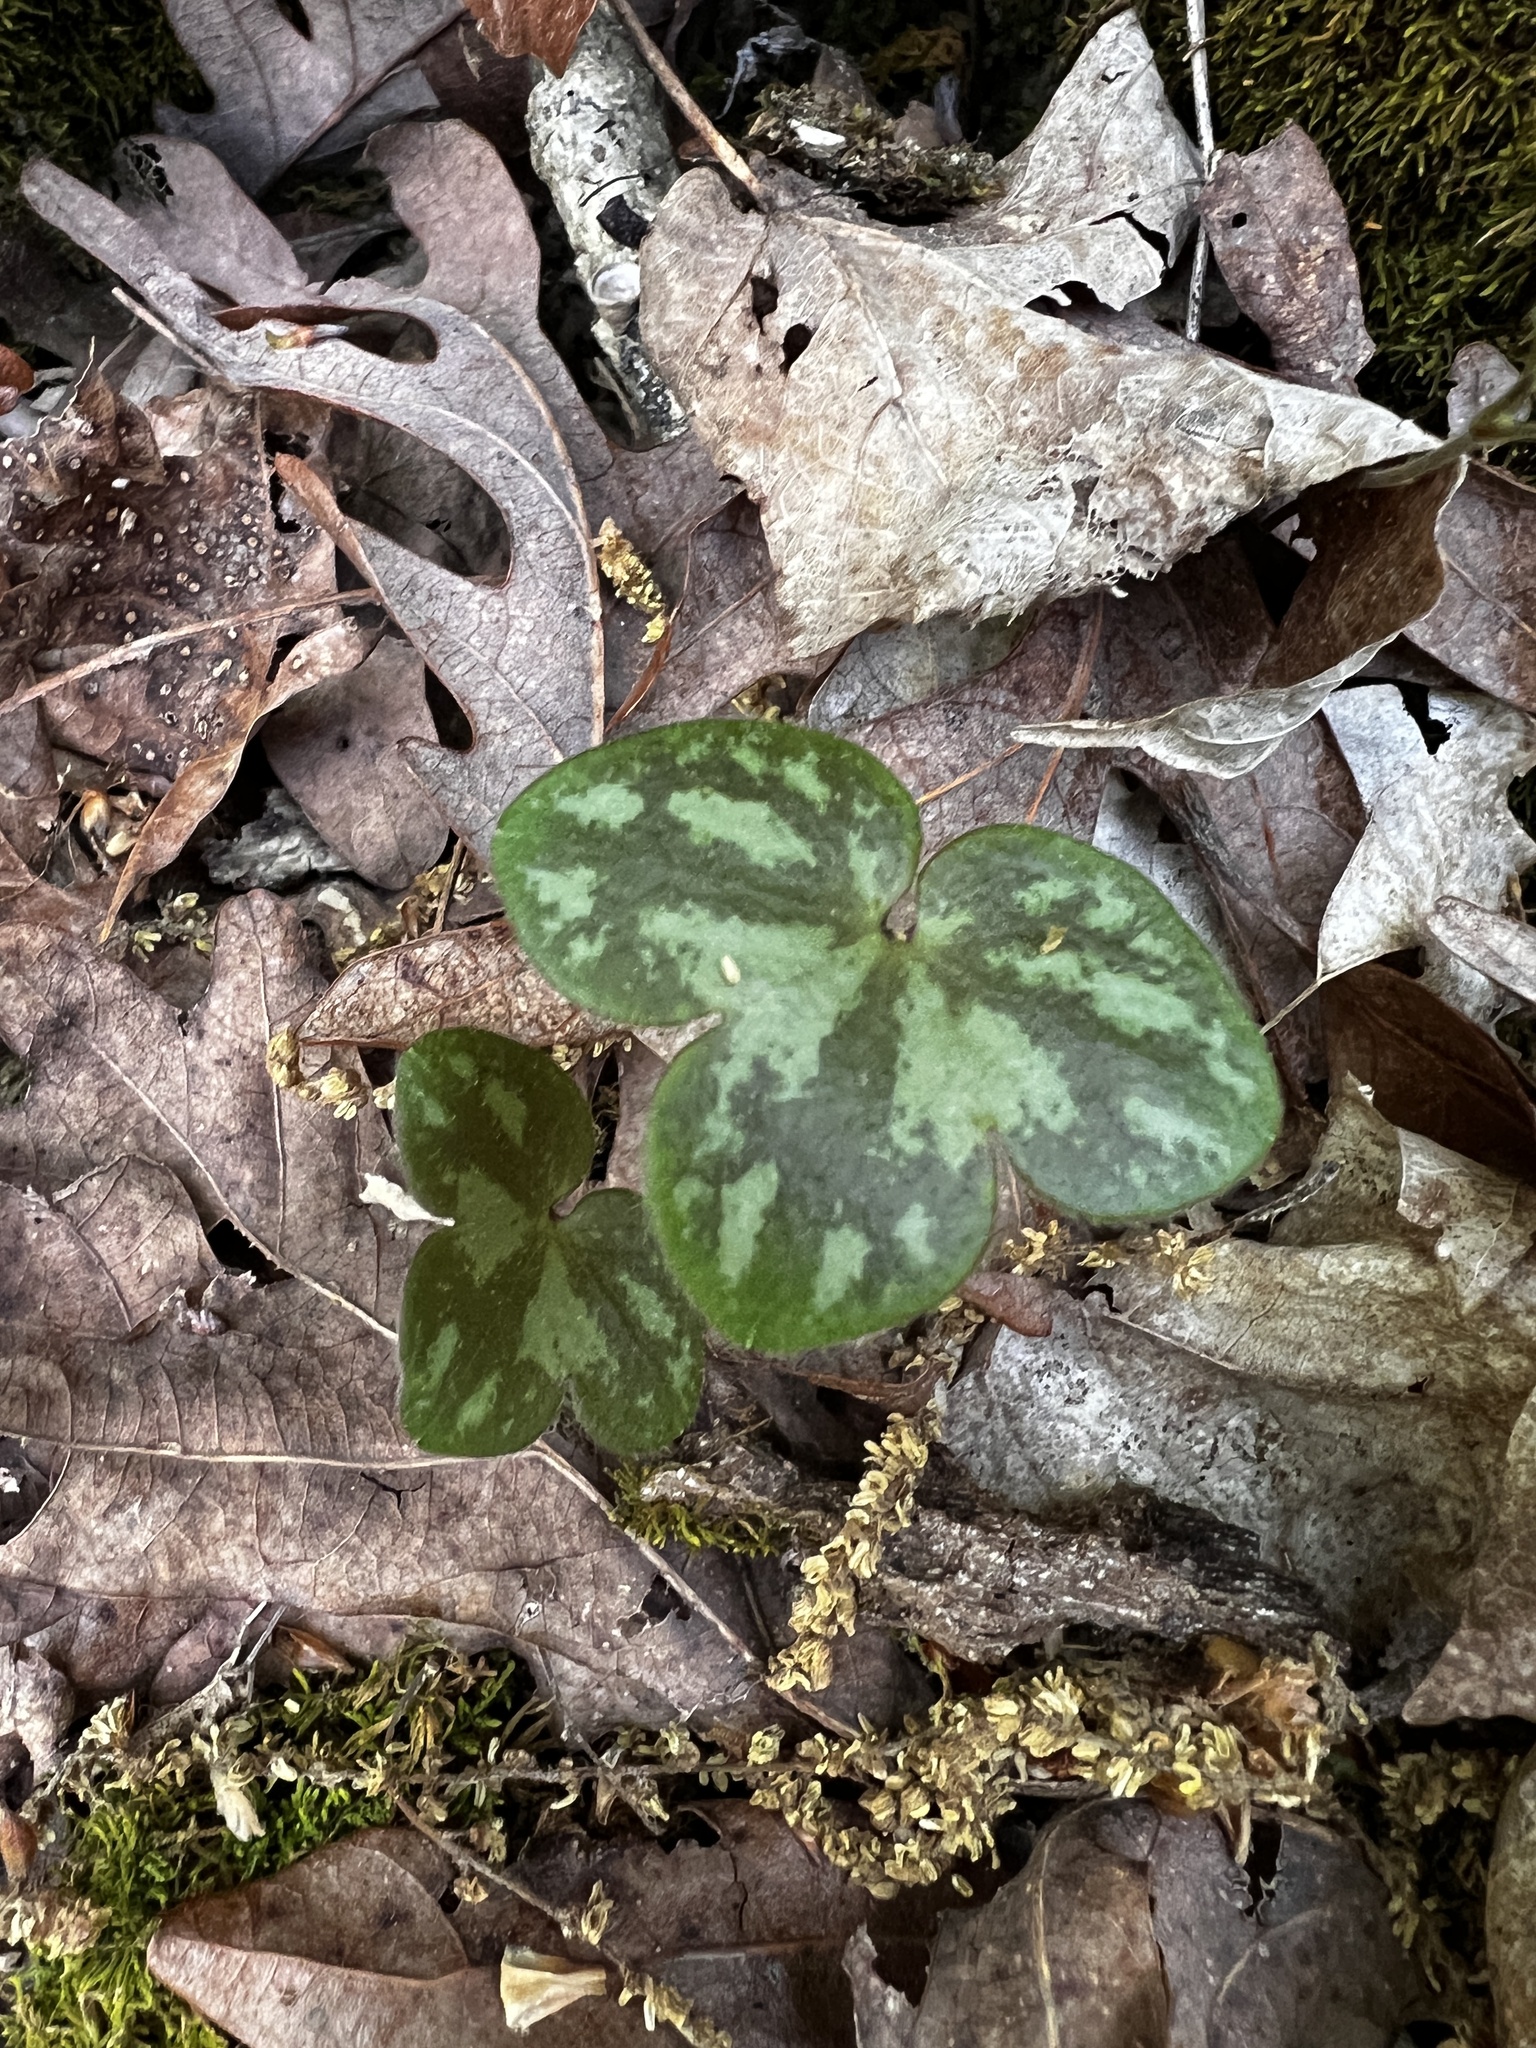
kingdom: Plantae
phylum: Tracheophyta
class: Magnoliopsida
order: Ranunculales
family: Ranunculaceae
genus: Hepatica
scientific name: Hepatica americana
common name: American hepatica
